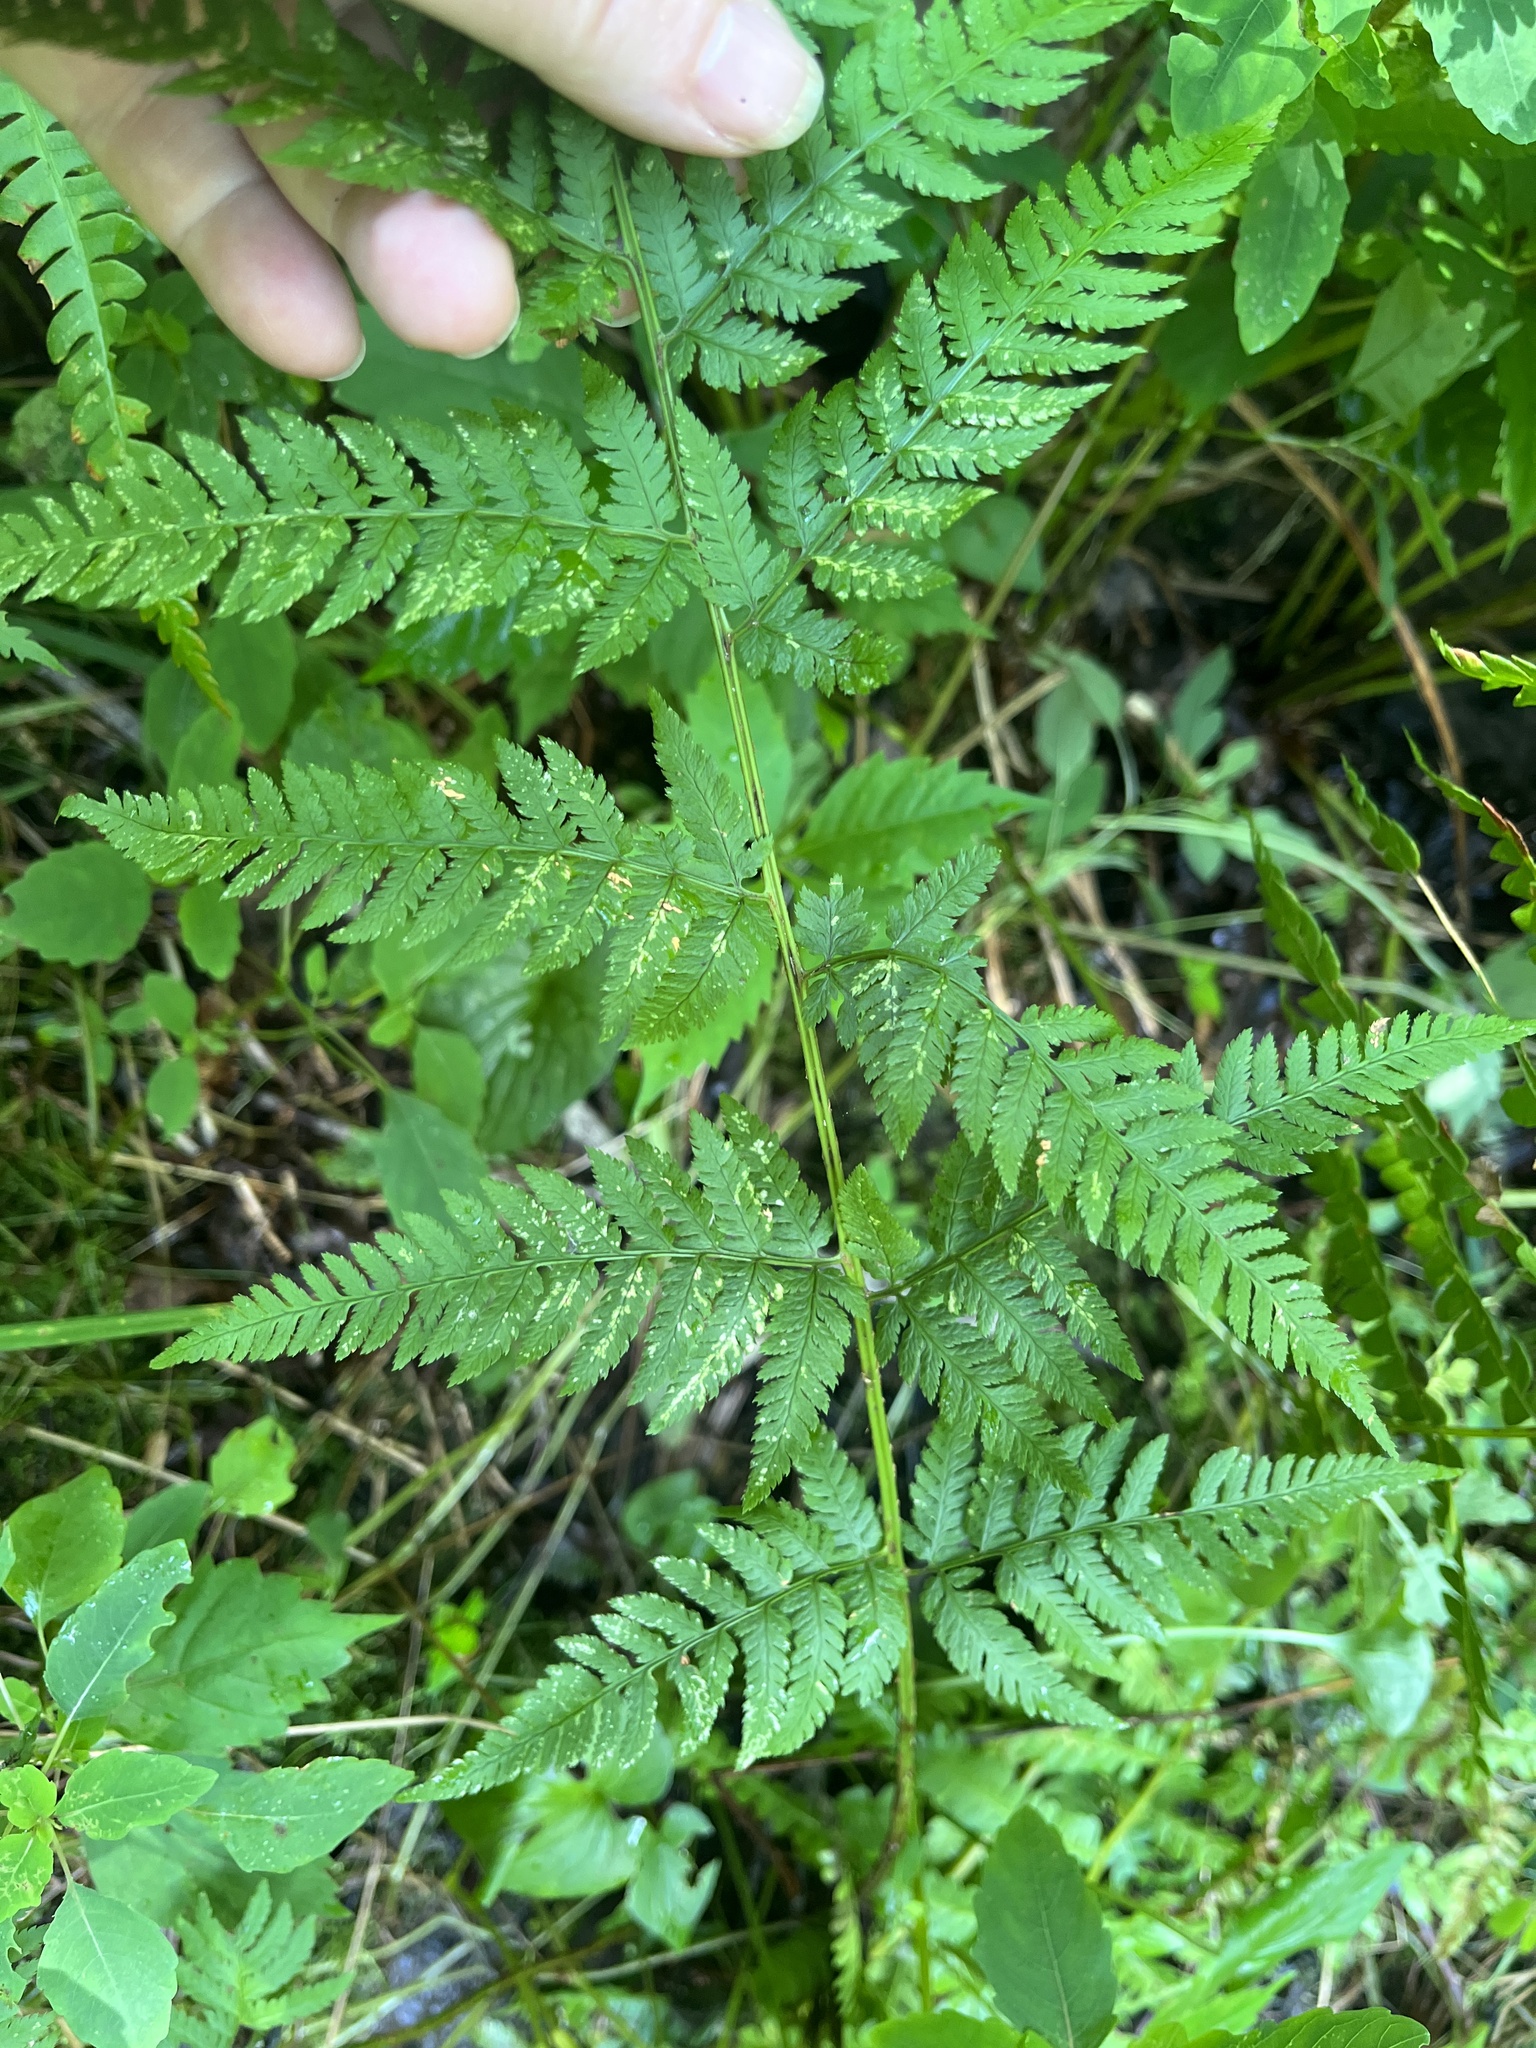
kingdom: Plantae
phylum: Tracheophyta
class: Polypodiopsida
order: Polypodiales
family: Dryopteridaceae
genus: Dryopteris
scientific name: Dryopteris carthusiana
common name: Narrow buckler-fern
